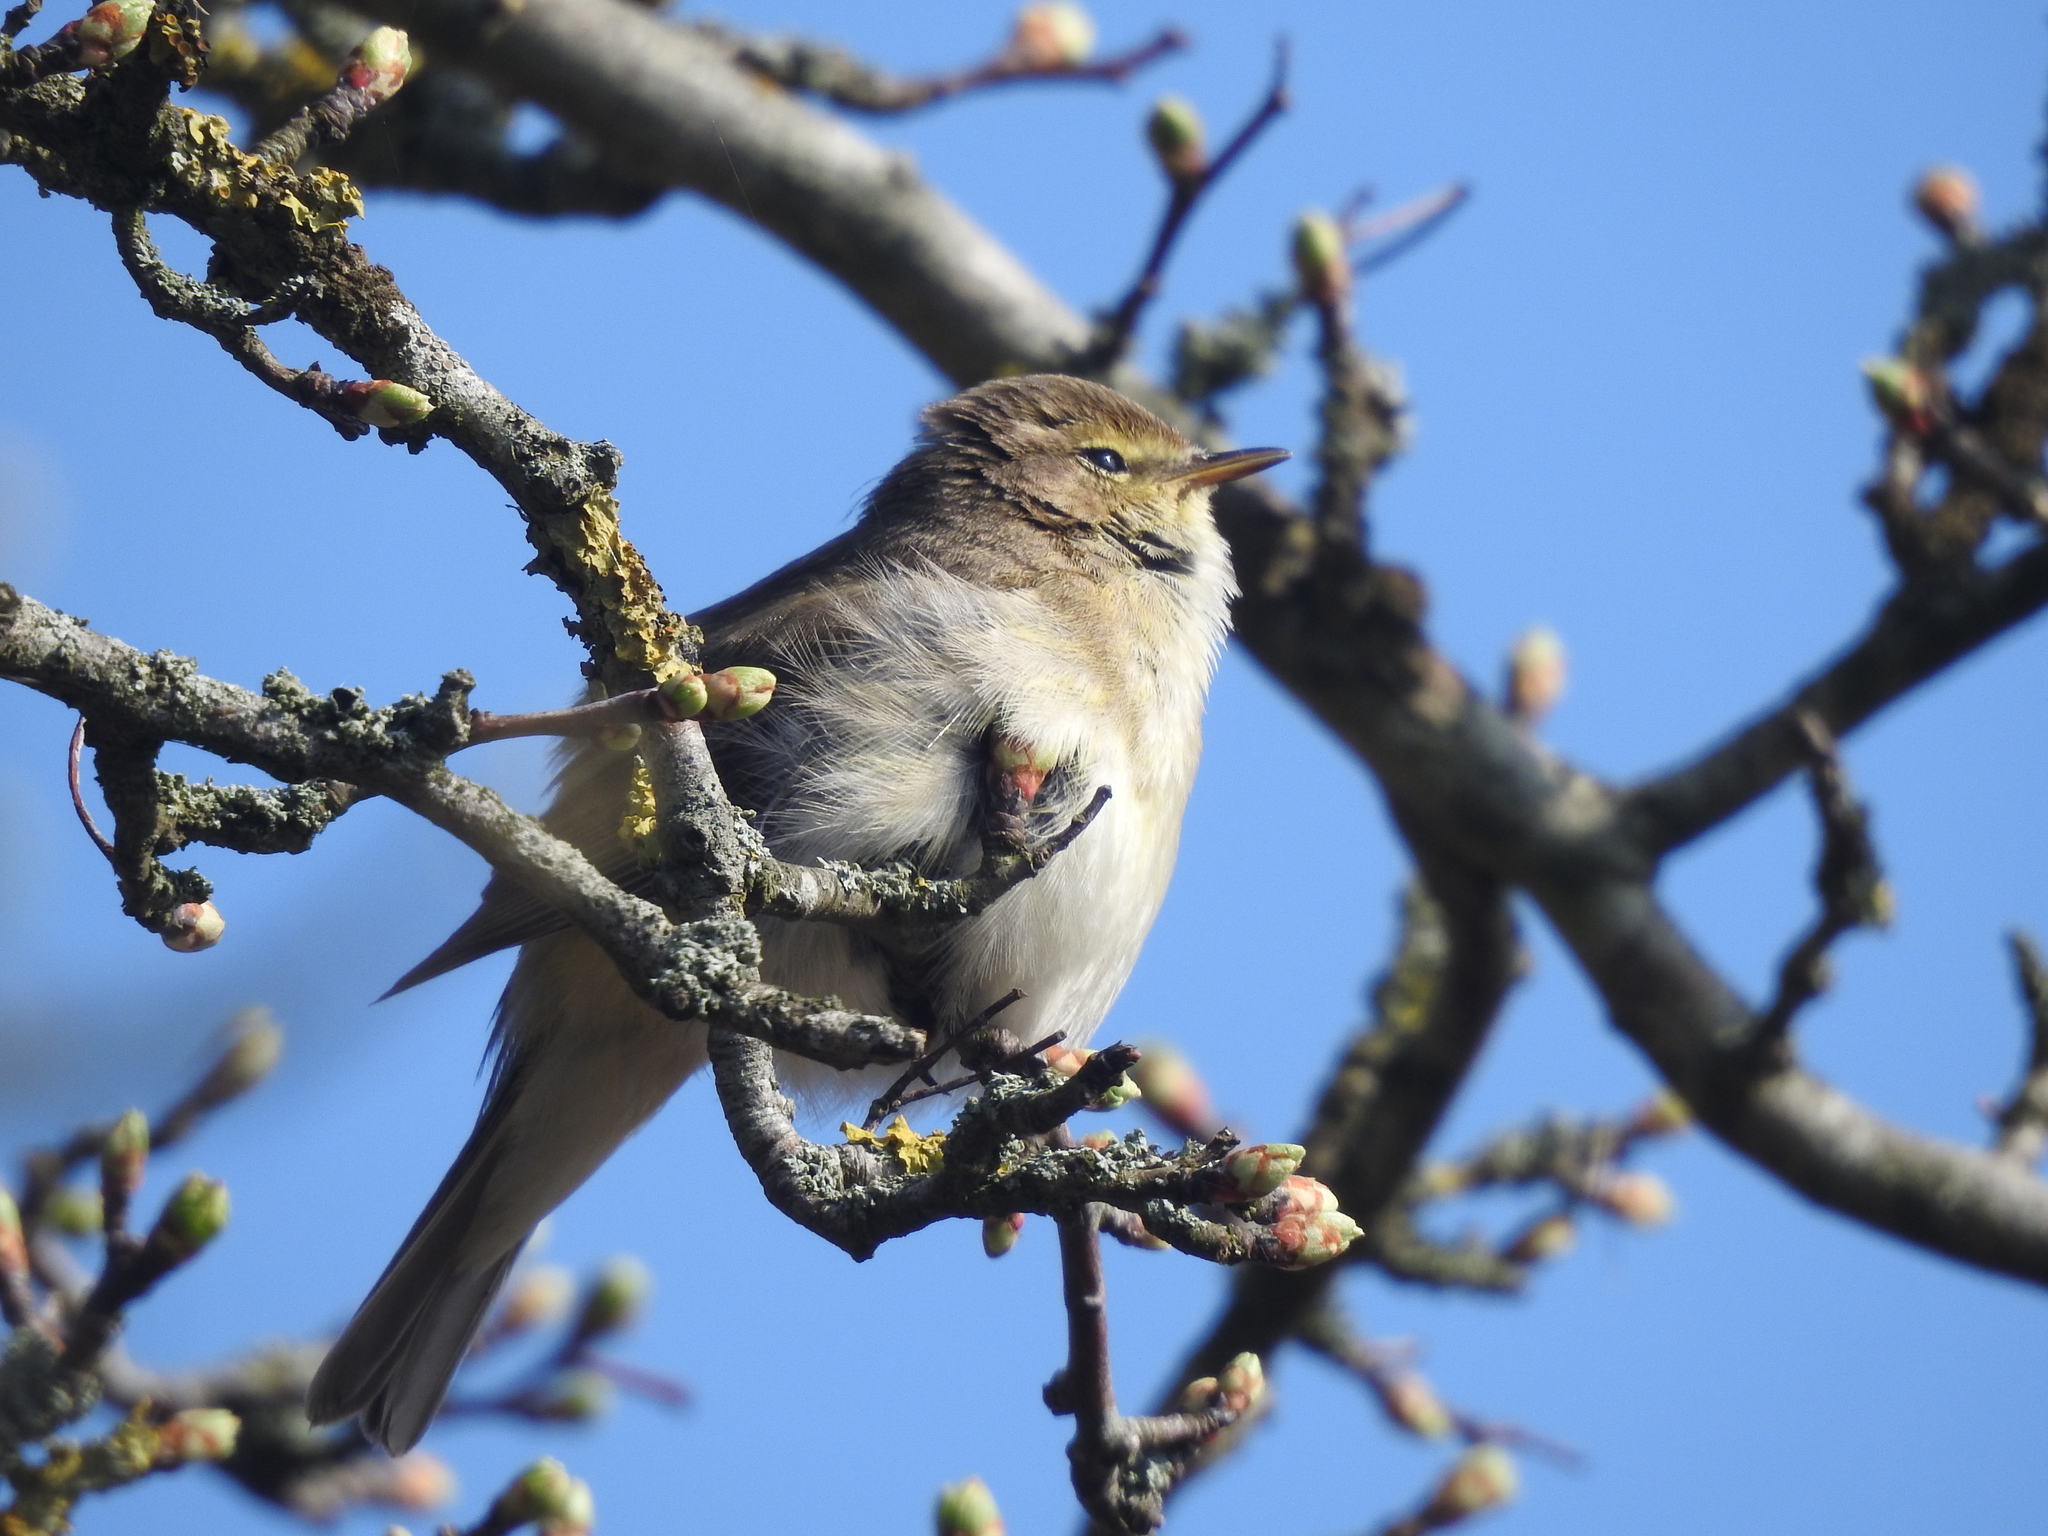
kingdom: Animalia
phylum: Chordata
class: Aves
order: Passeriformes
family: Phylloscopidae
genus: Phylloscopus
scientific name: Phylloscopus collybita
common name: Common chiffchaff
